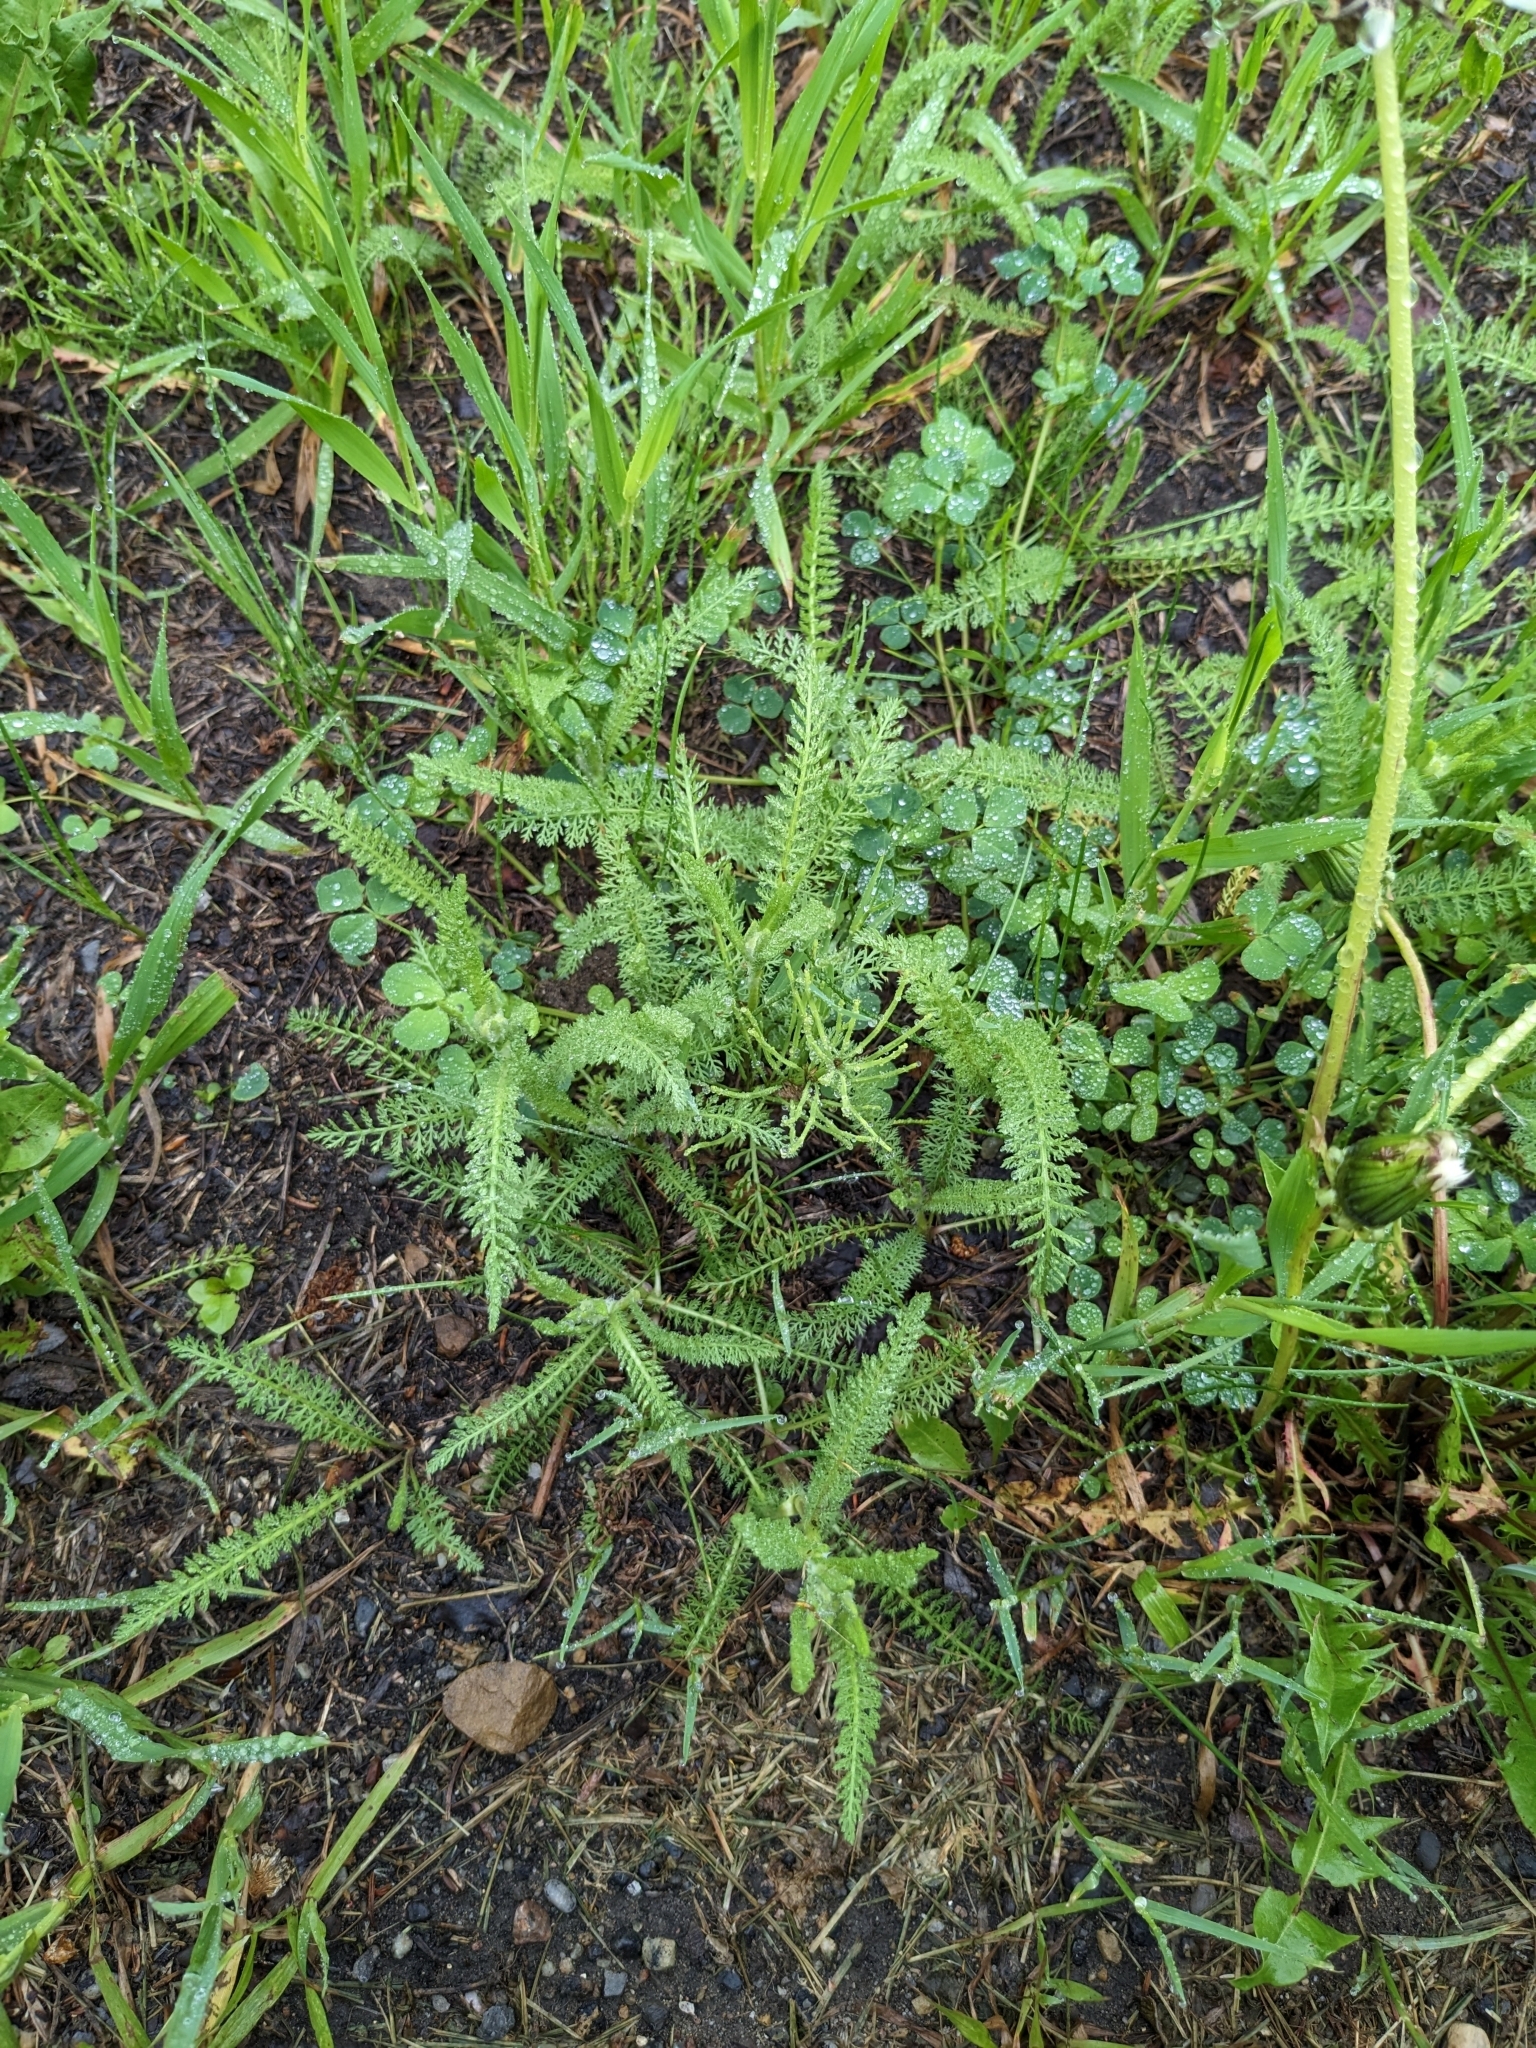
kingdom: Plantae
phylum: Tracheophyta
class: Magnoliopsida
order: Asterales
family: Asteraceae
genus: Achillea
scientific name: Achillea millefolium
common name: Yarrow
